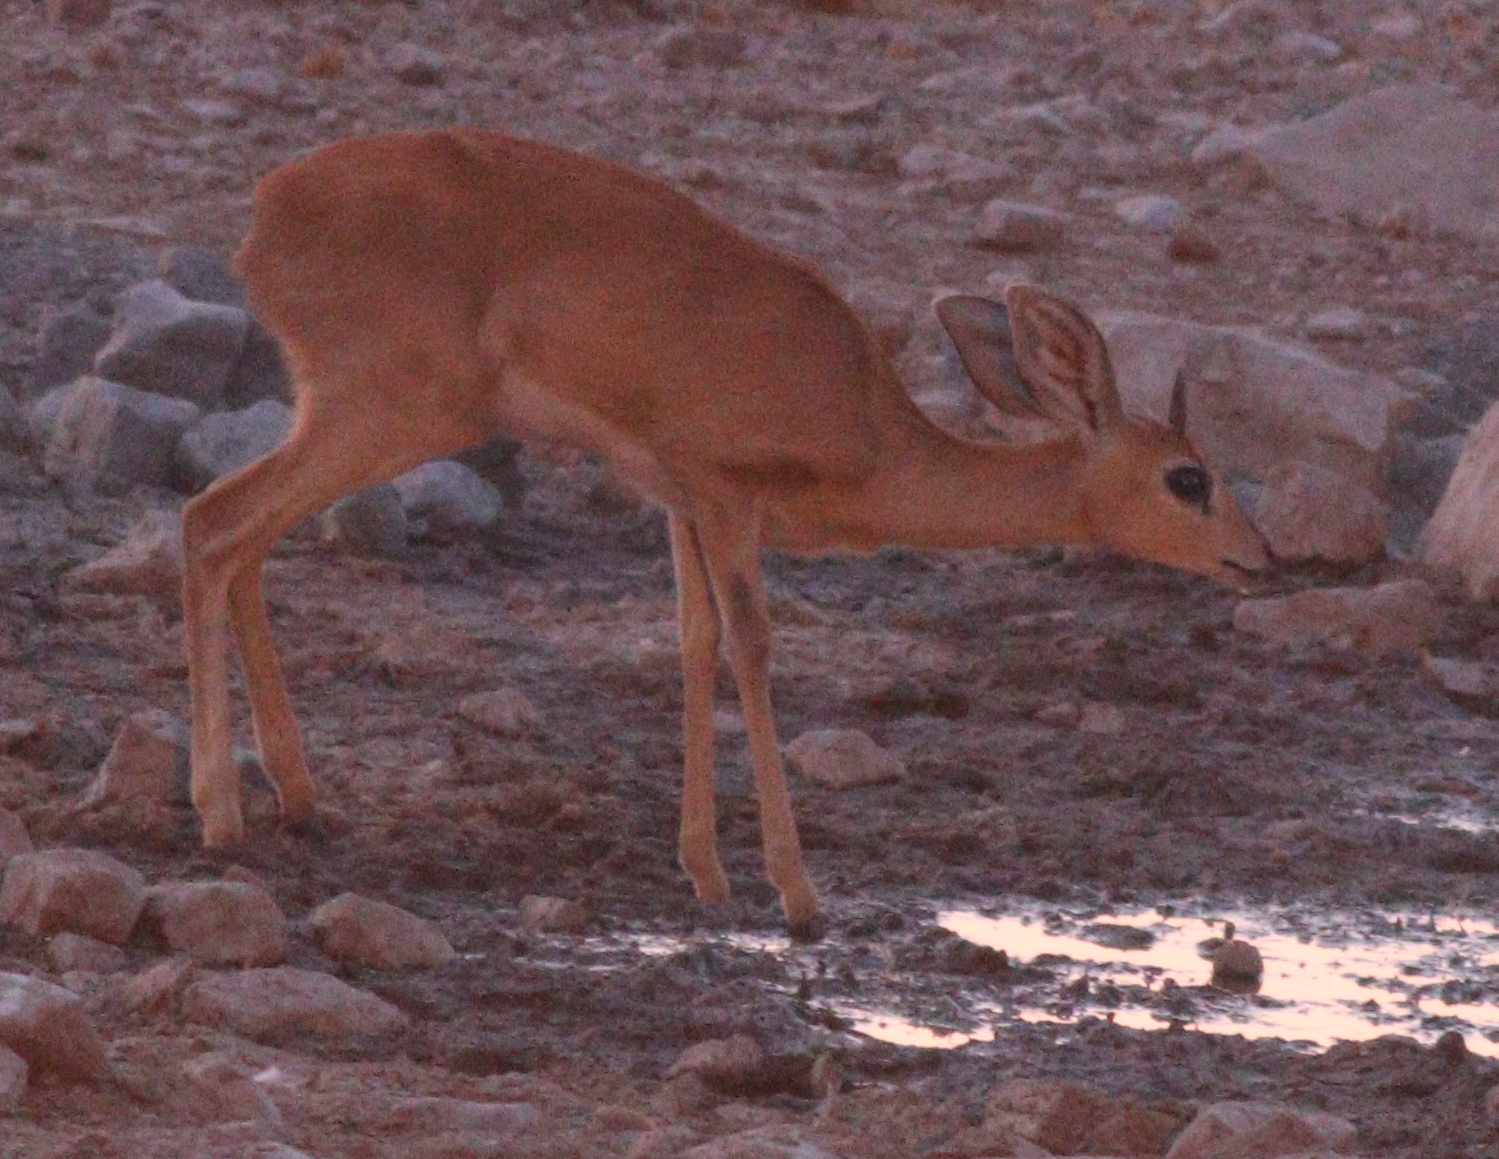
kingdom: Animalia
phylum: Chordata
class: Mammalia
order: Artiodactyla
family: Bovidae
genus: Raphicerus
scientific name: Raphicerus campestris
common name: Steenbok
